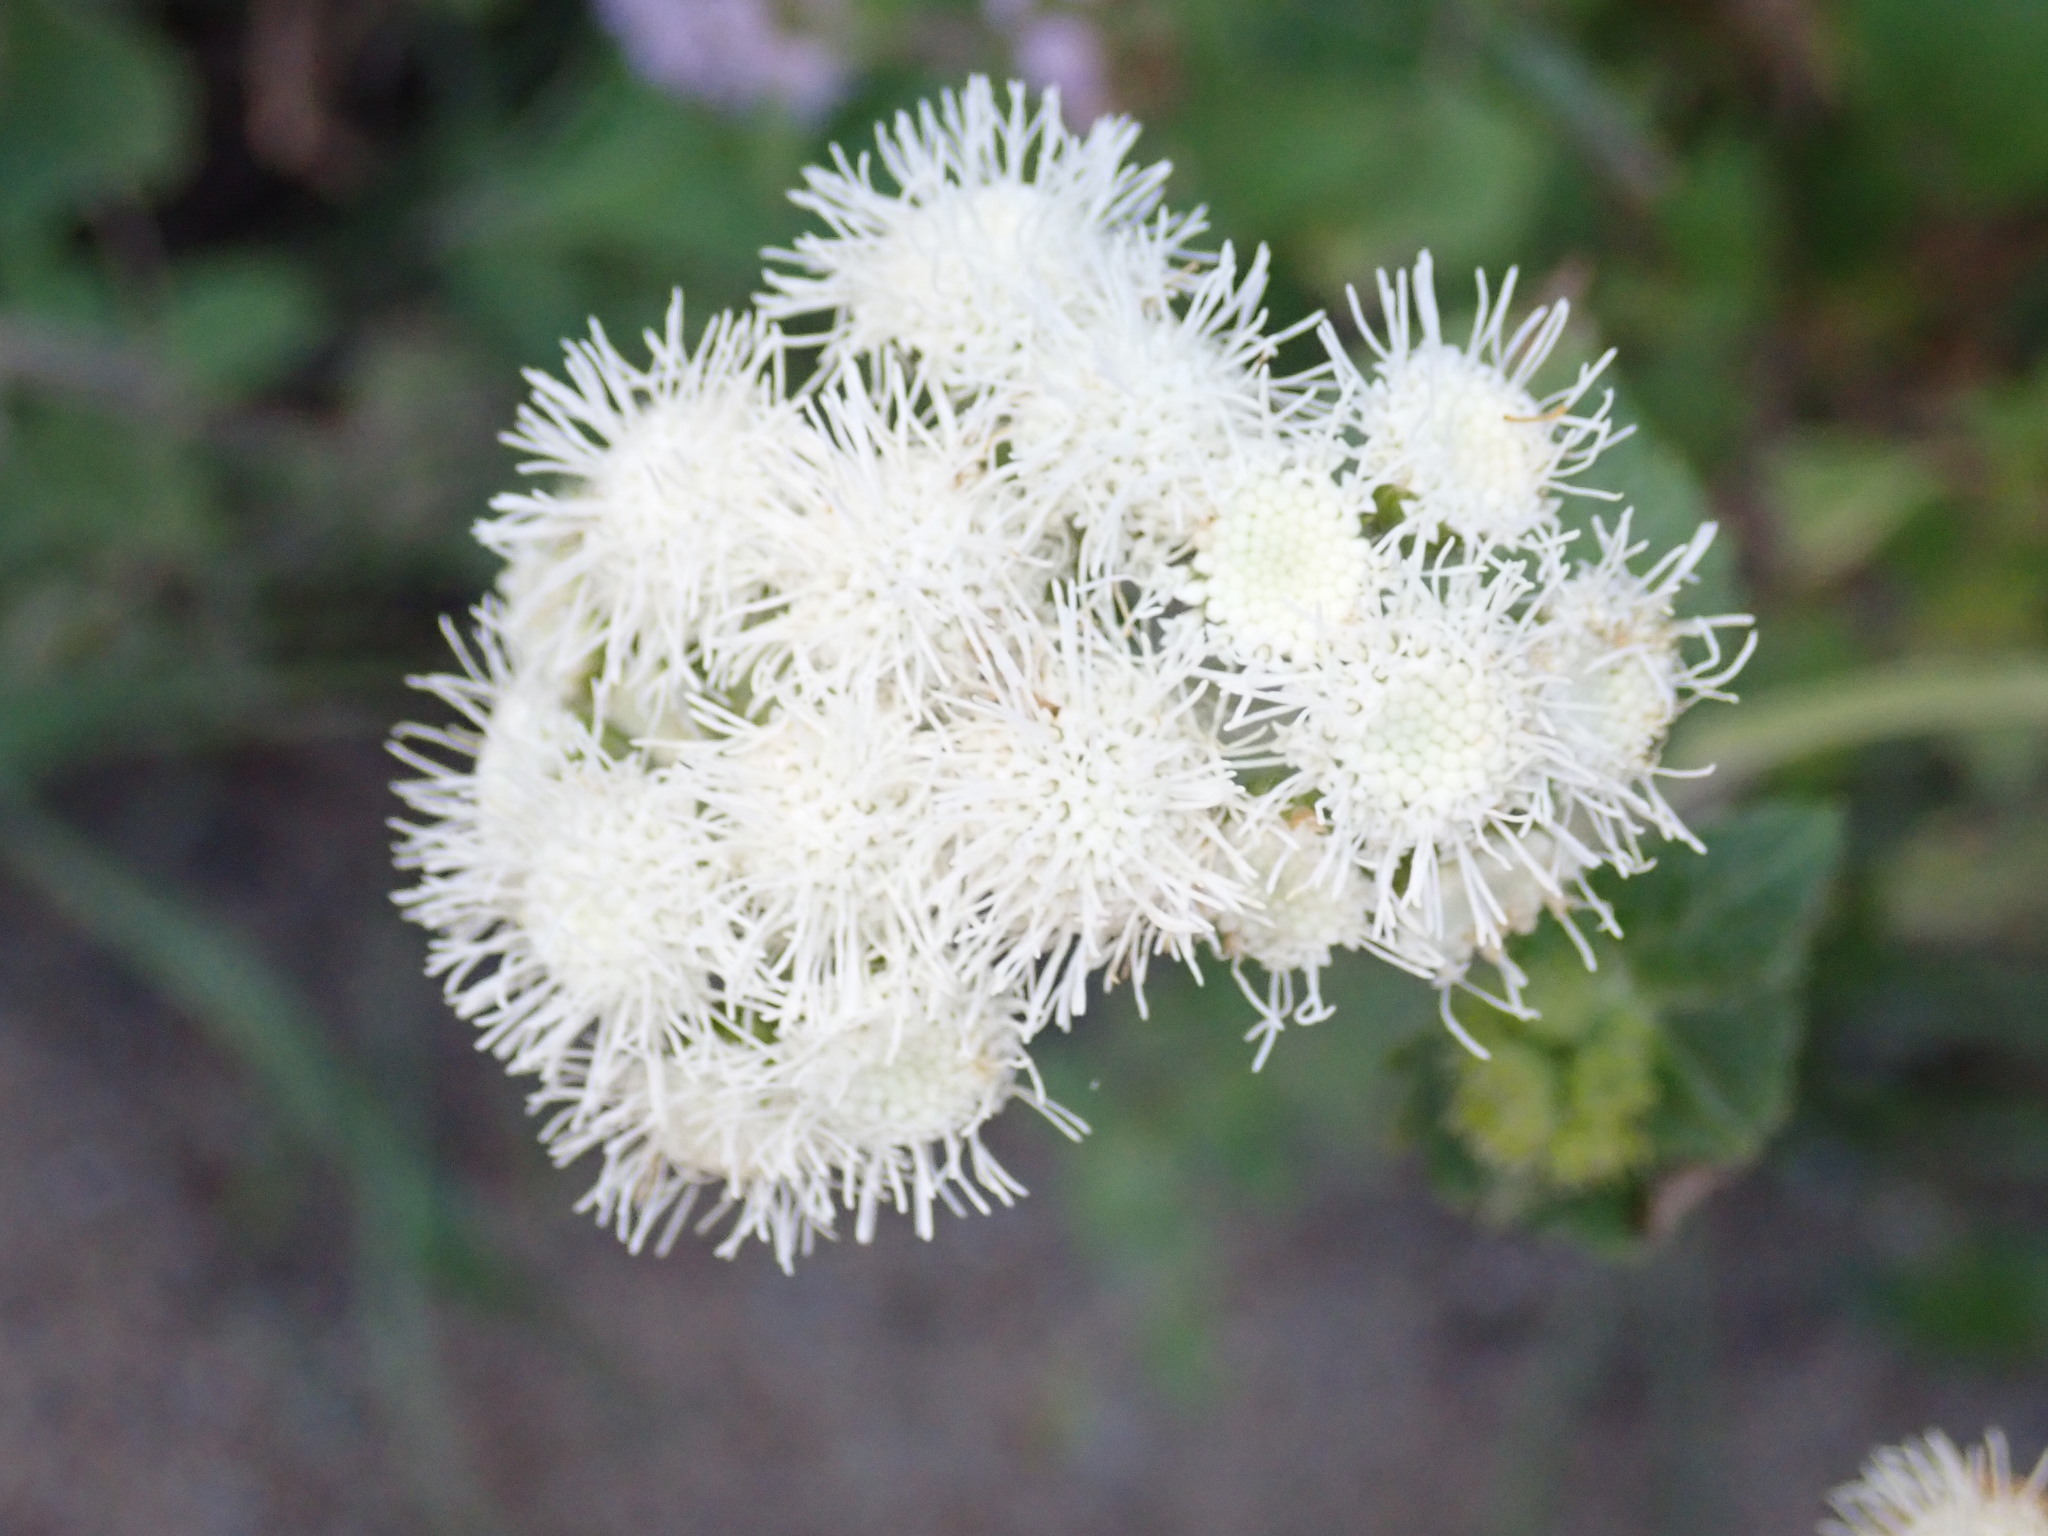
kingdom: Plantae
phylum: Tracheophyta
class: Magnoliopsida
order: Asterales
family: Asteraceae
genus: Ageratina
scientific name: Ageratina riparia
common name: Creeping croftonweed
